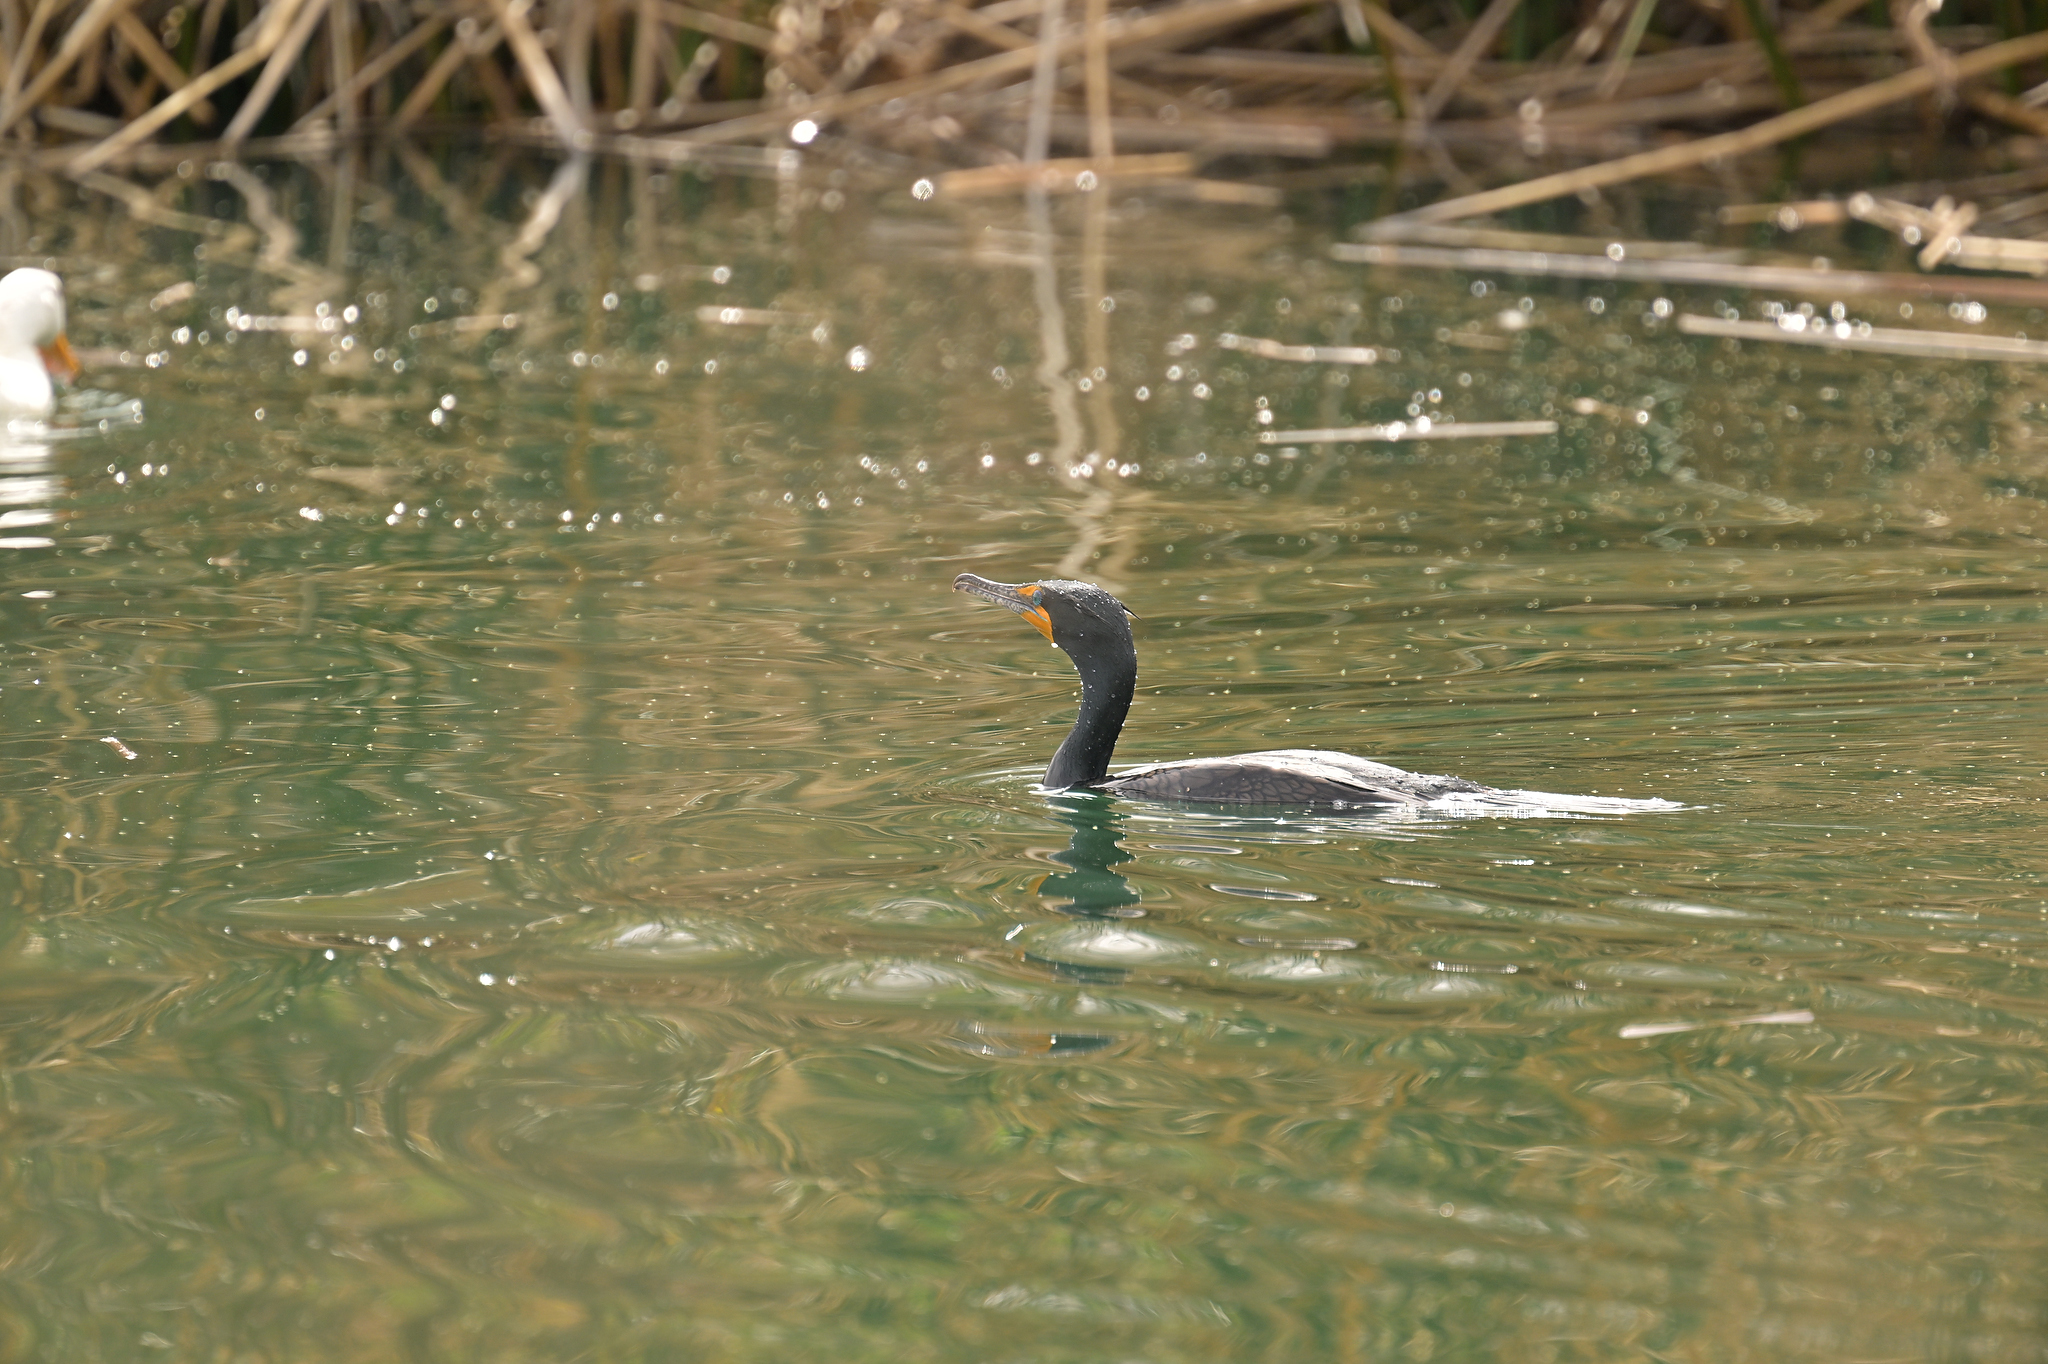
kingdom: Animalia
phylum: Chordata
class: Aves
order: Suliformes
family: Phalacrocoracidae
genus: Phalacrocorax
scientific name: Phalacrocorax auritus
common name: Double-crested cormorant
